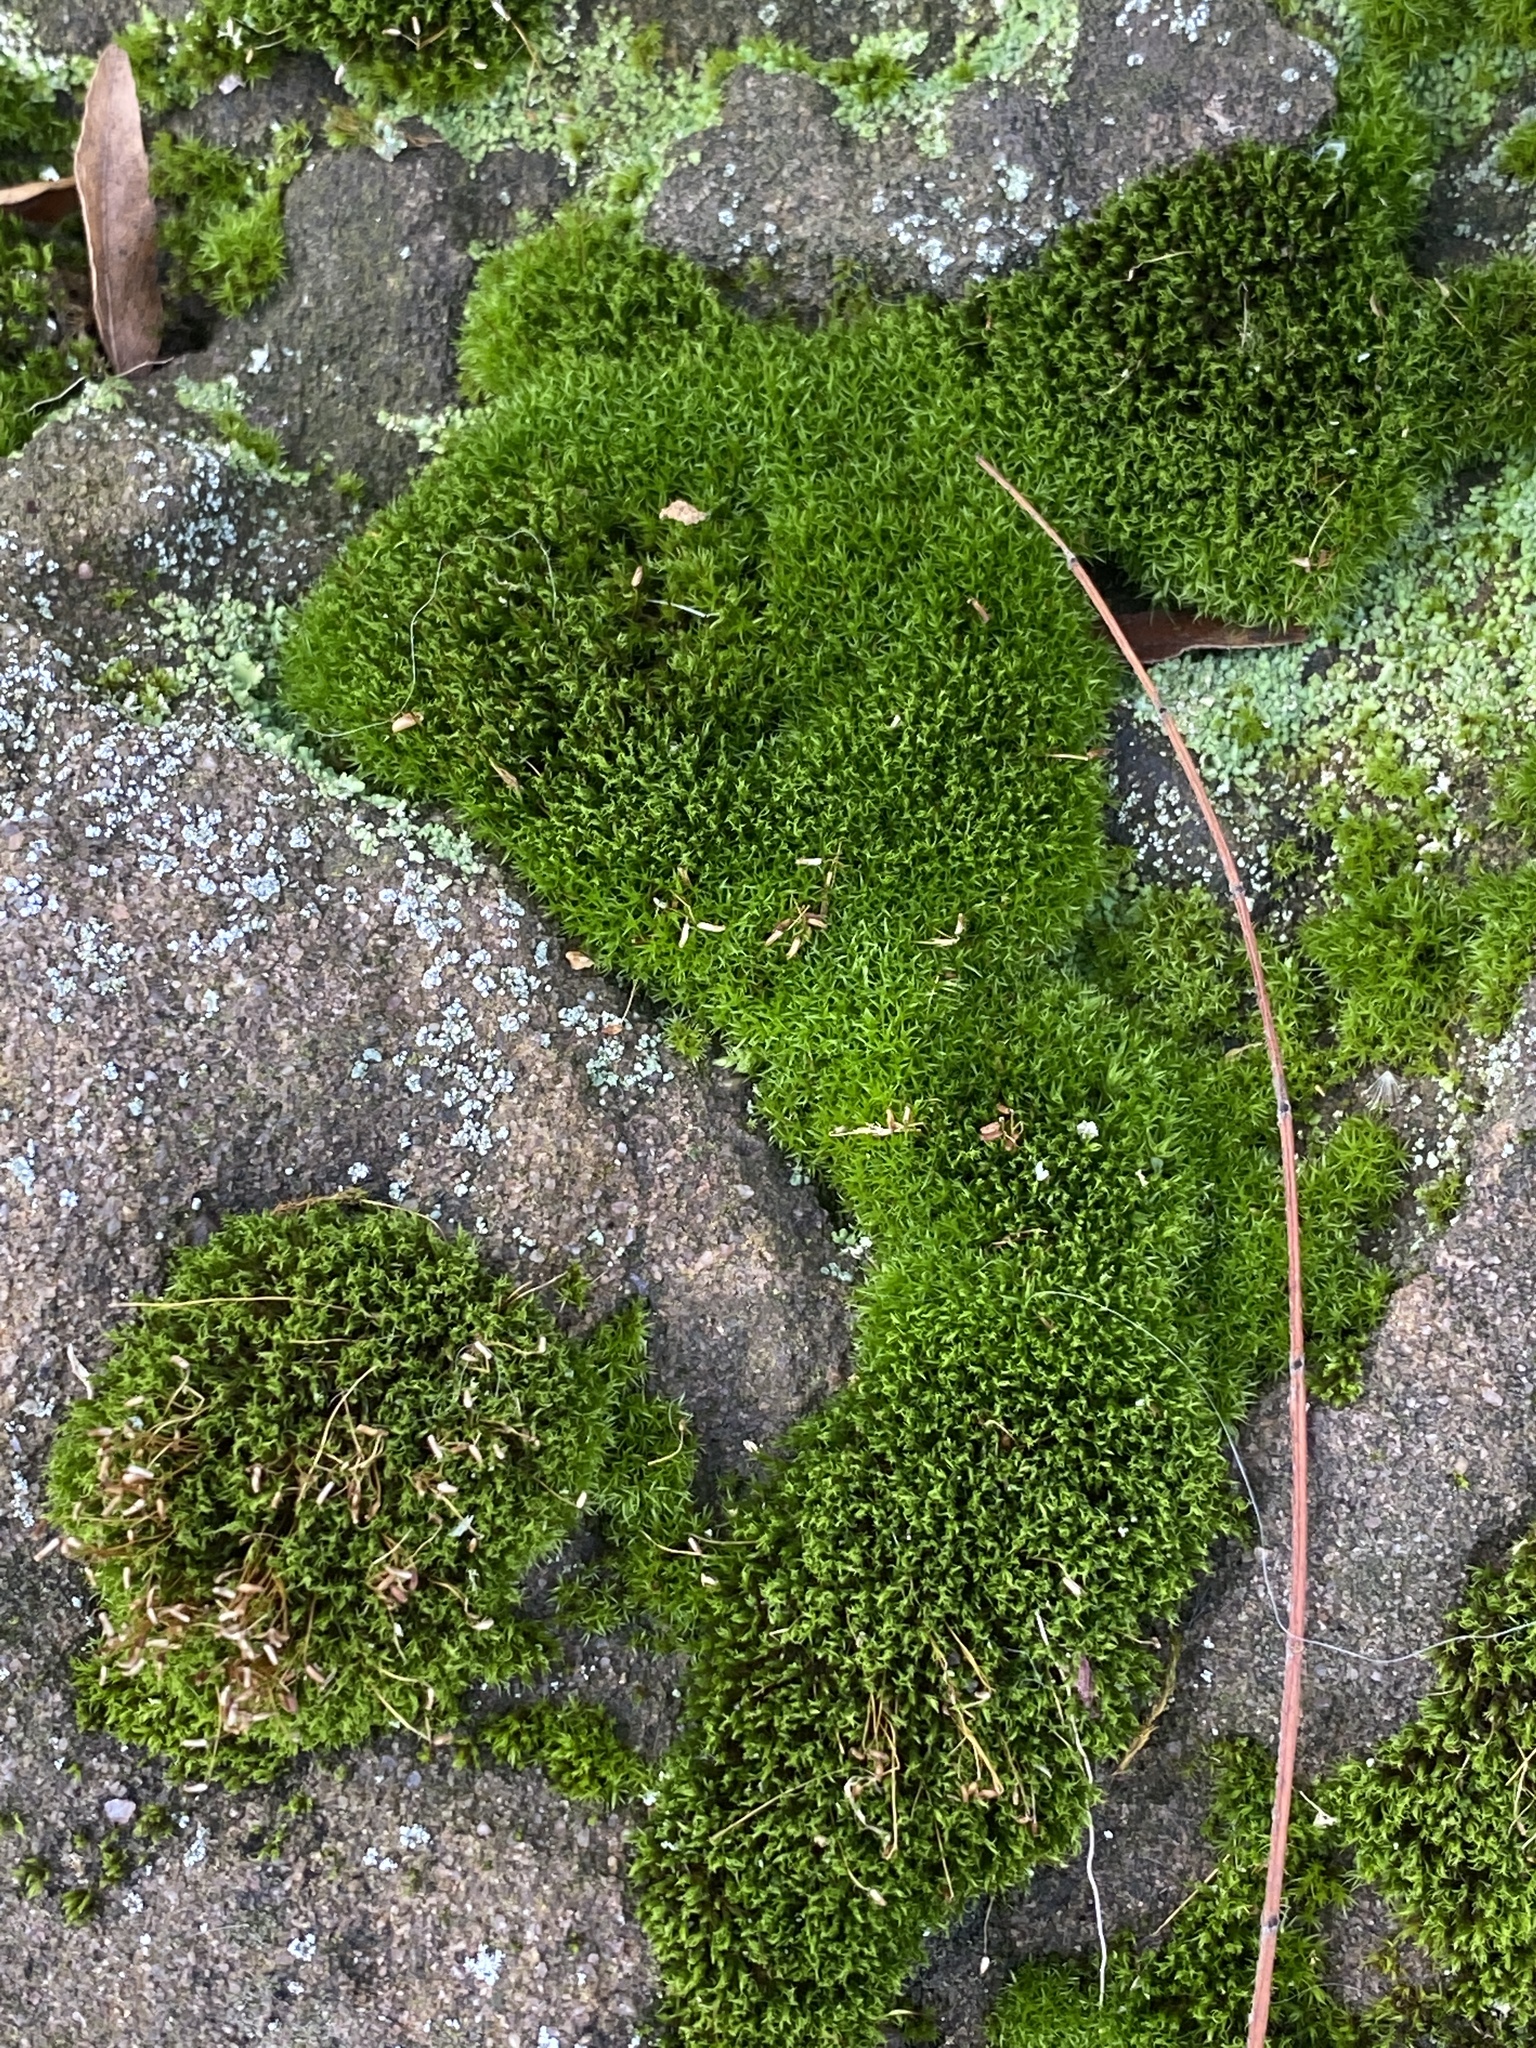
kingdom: Plantae
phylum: Bryophyta
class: Bryopsida
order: Bryales
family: Bryaceae
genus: Bryum
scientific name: Bryum argenteum
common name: Silver-moss
